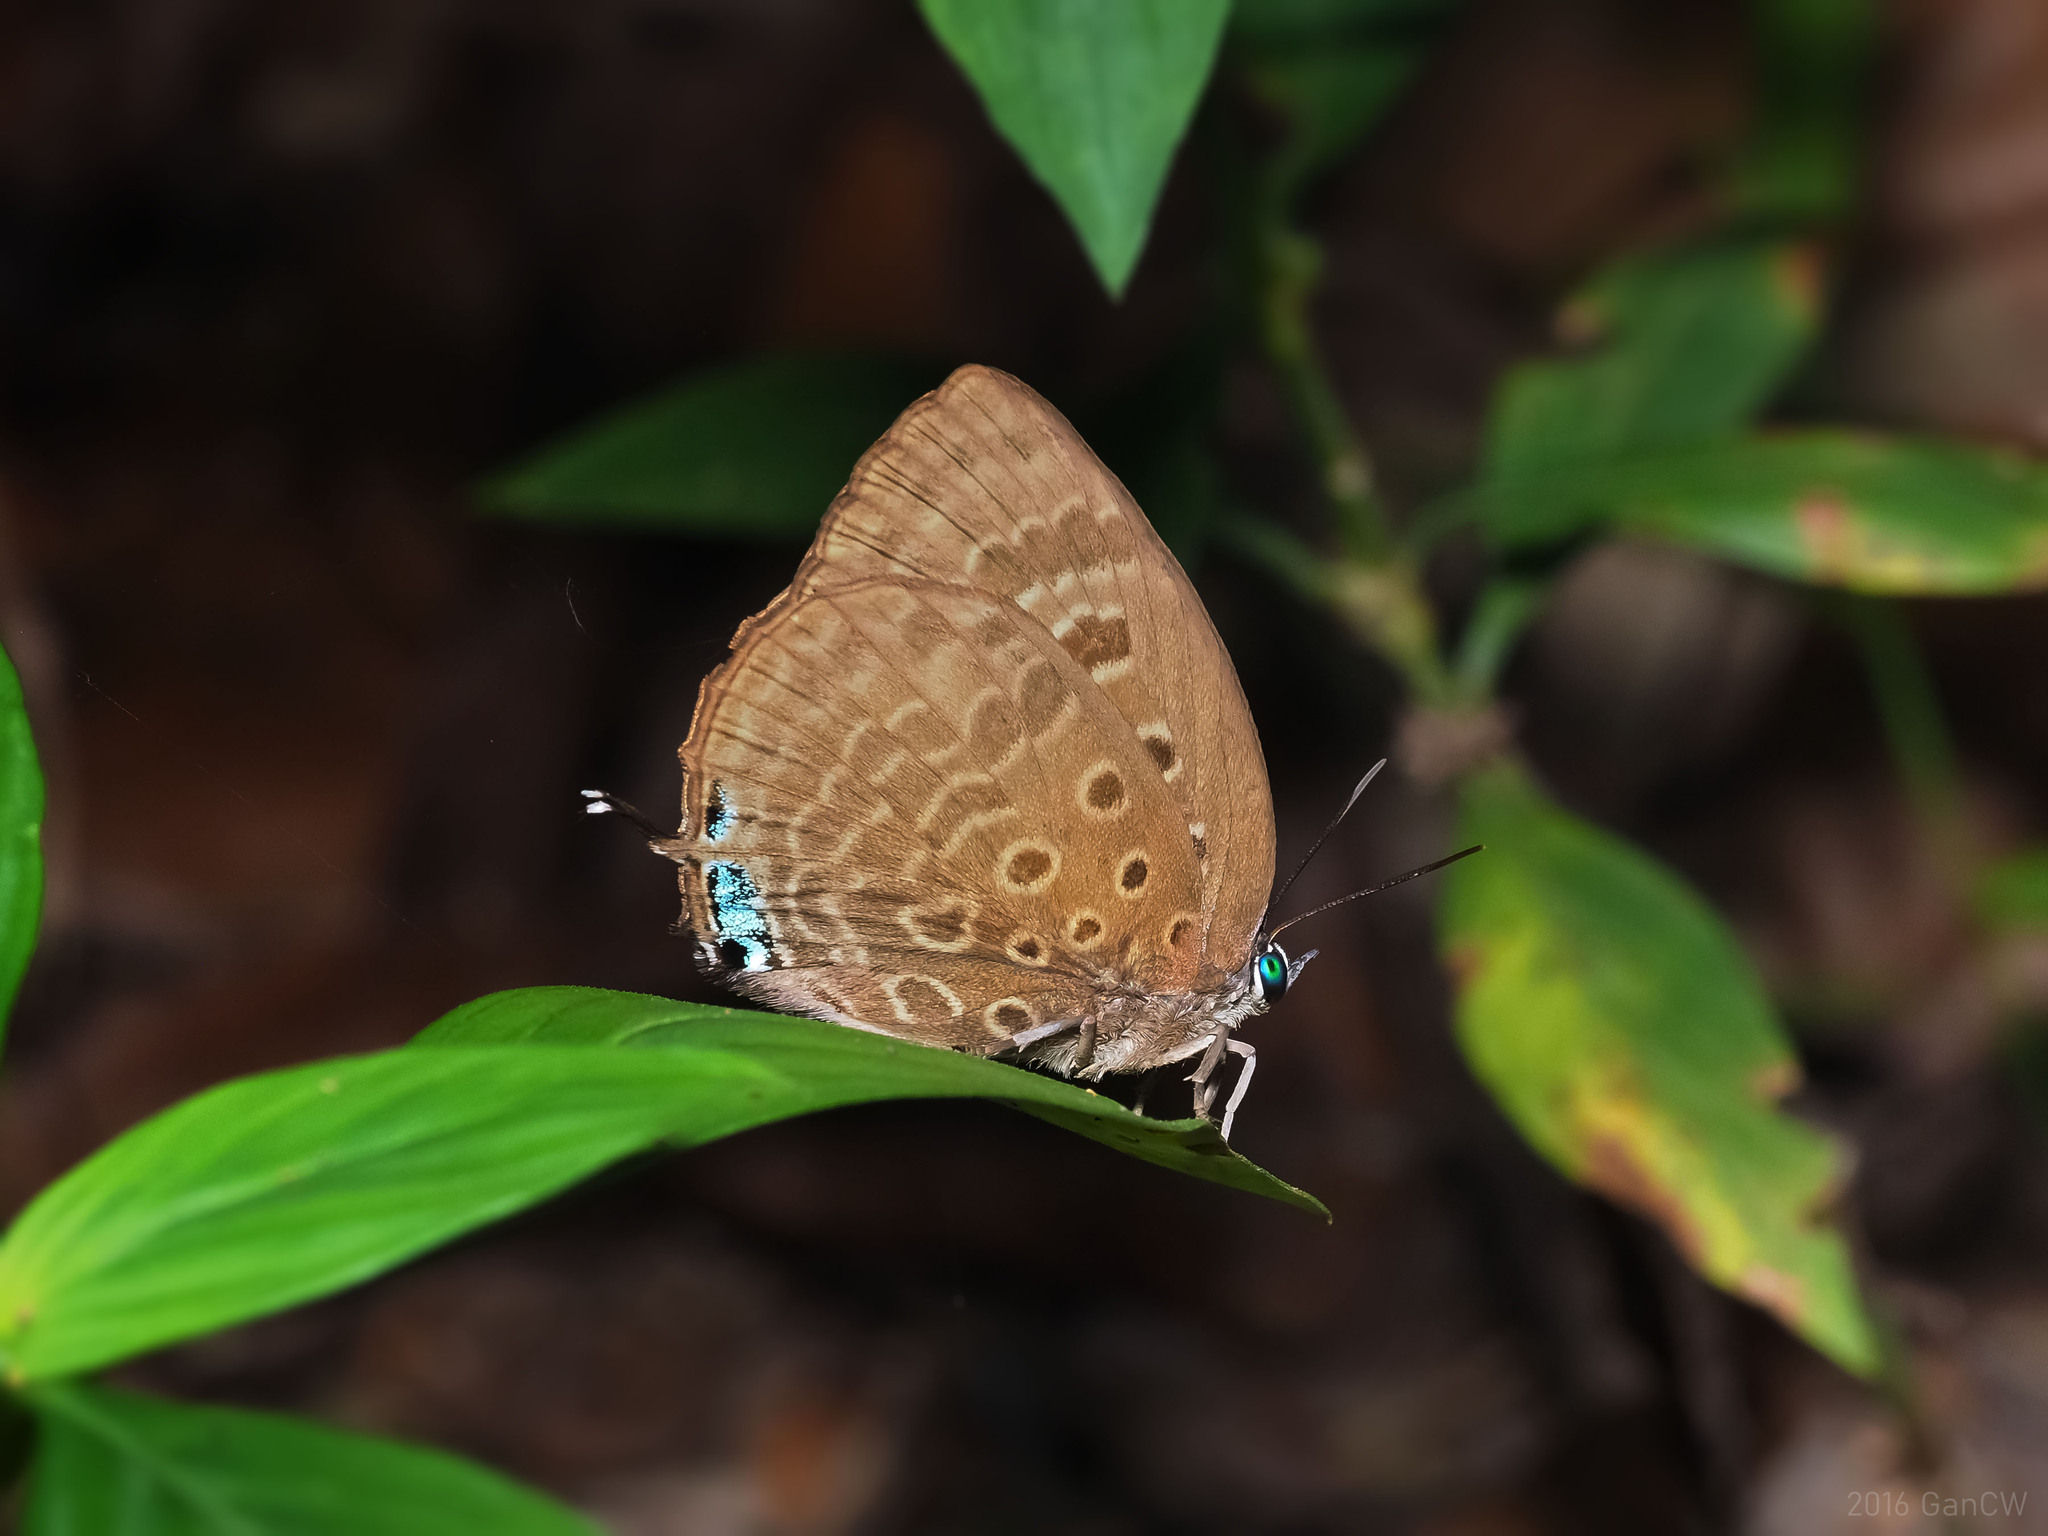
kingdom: Animalia
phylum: Arthropoda
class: Insecta
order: Lepidoptera
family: Lycaenidae
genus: Arhopala
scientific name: Arhopala barami
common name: Wood's oakblue
